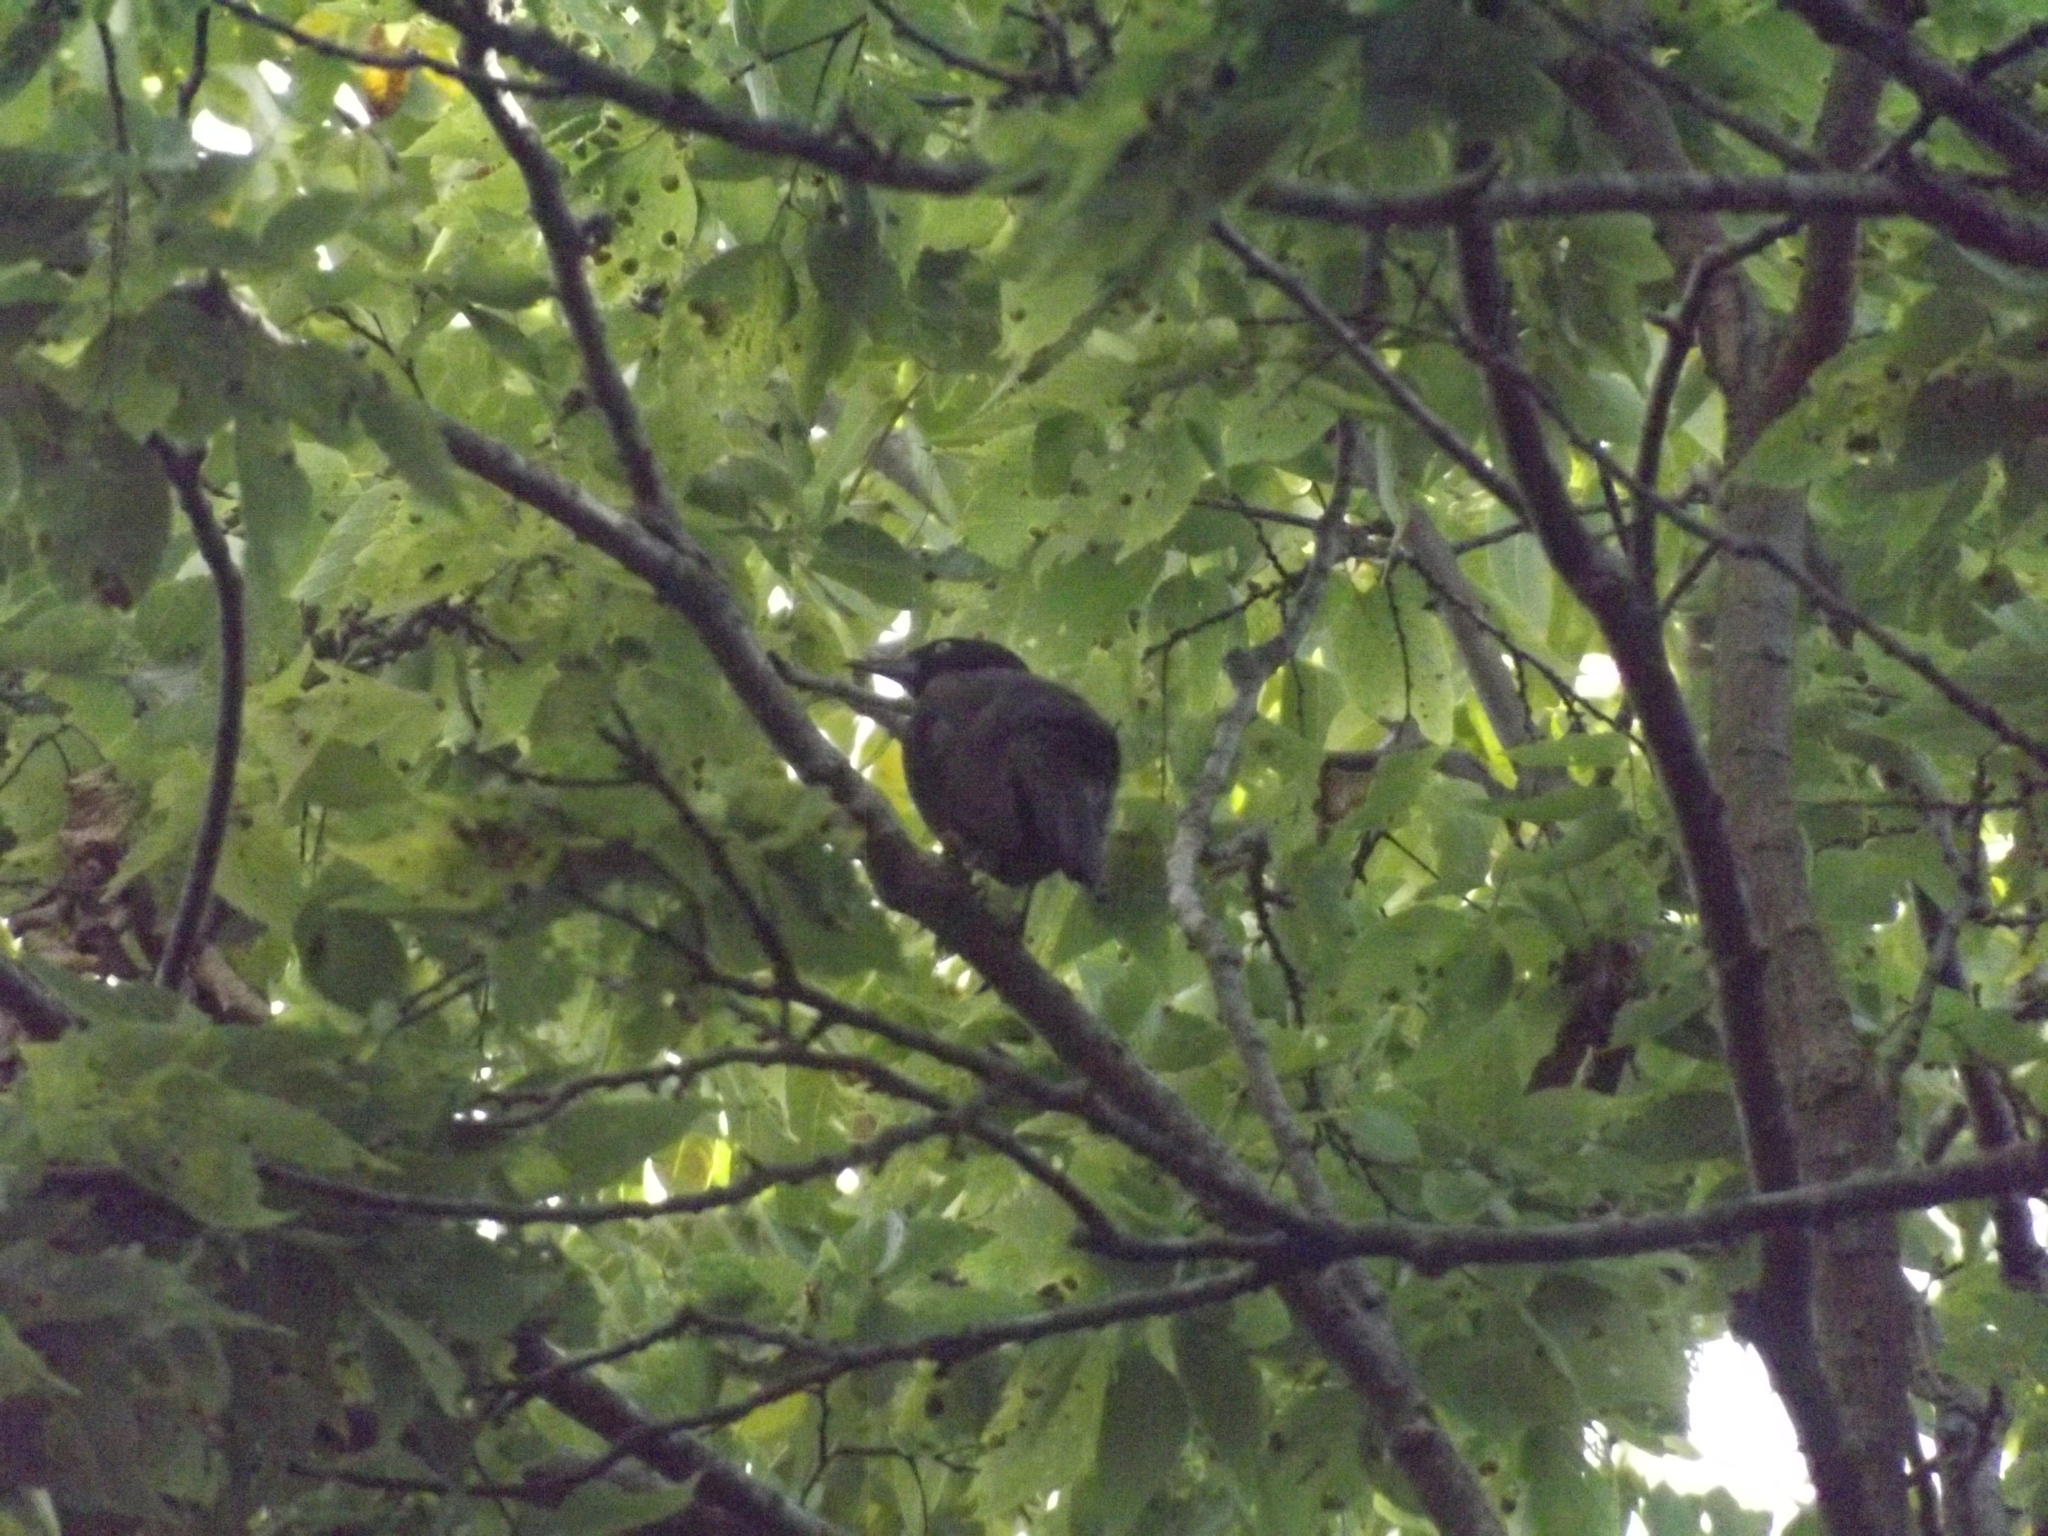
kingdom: Animalia
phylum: Chordata
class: Aves
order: Passeriformes
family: Icteridae
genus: Quiscalus
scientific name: Quiscalus quiscula
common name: Common grackle
